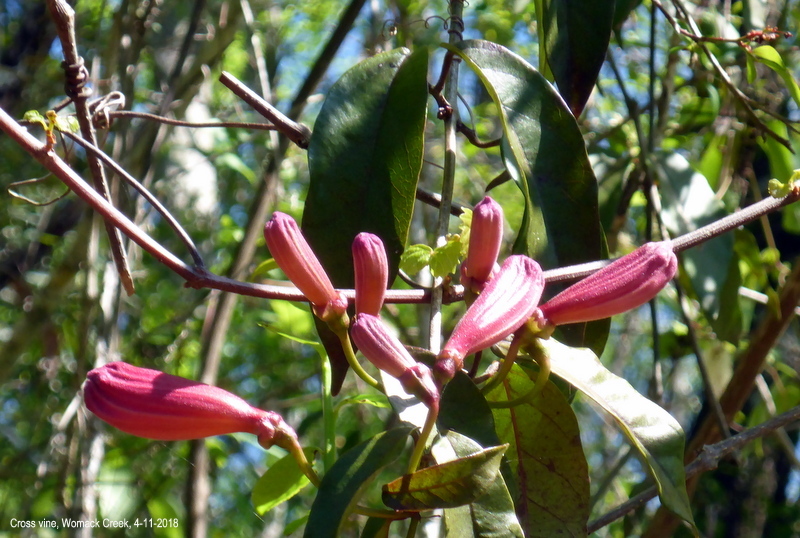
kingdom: Plantae
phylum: Tracheophyta
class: Magnoliopsida
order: Lamiales
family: Bignoniaceae
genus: Bignonia
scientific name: Bignonia capreolata
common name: Crossvine
